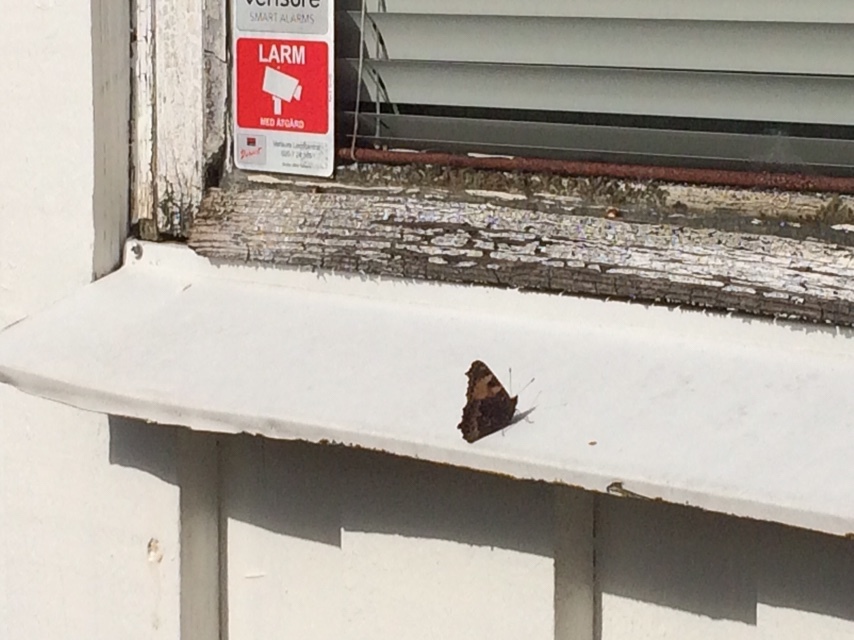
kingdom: Animalia
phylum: Arthropoda
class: Insecta
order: Lepidoptera
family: Nymphalidae
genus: Aglais
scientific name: Aglais urticae
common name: Small tortoiseshell
